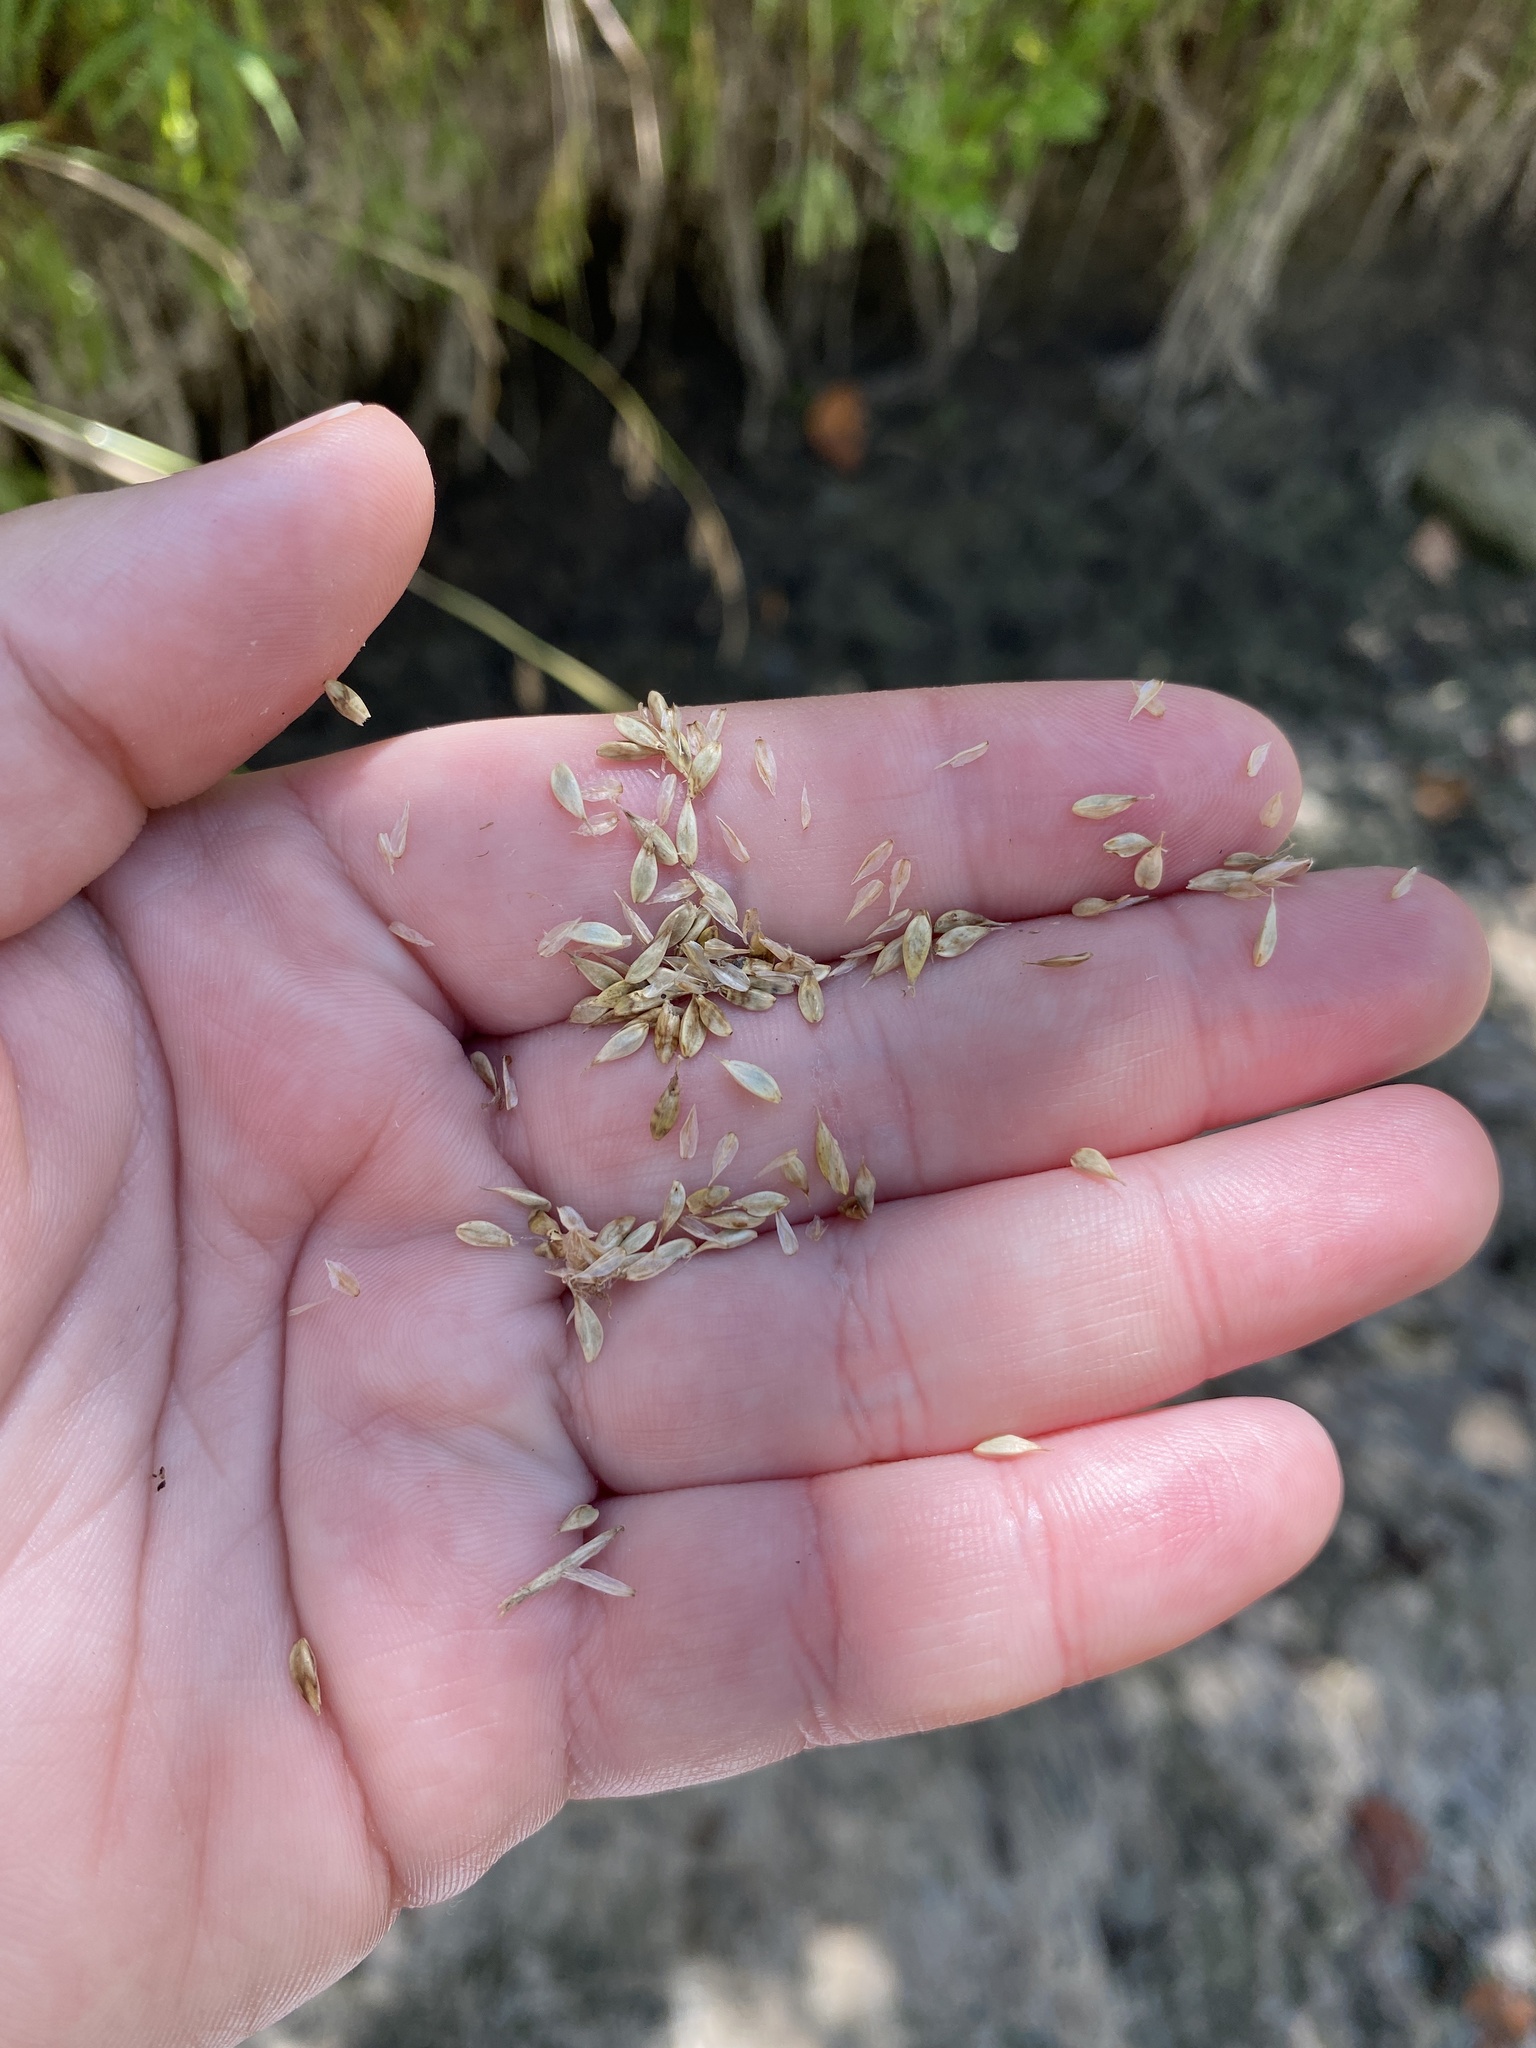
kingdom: Plantae
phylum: Tracheophyta
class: Liliopsida
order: Poales
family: Cyperaceae
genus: Carex
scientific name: Carex cherokeensis
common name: Cherokee sedge
